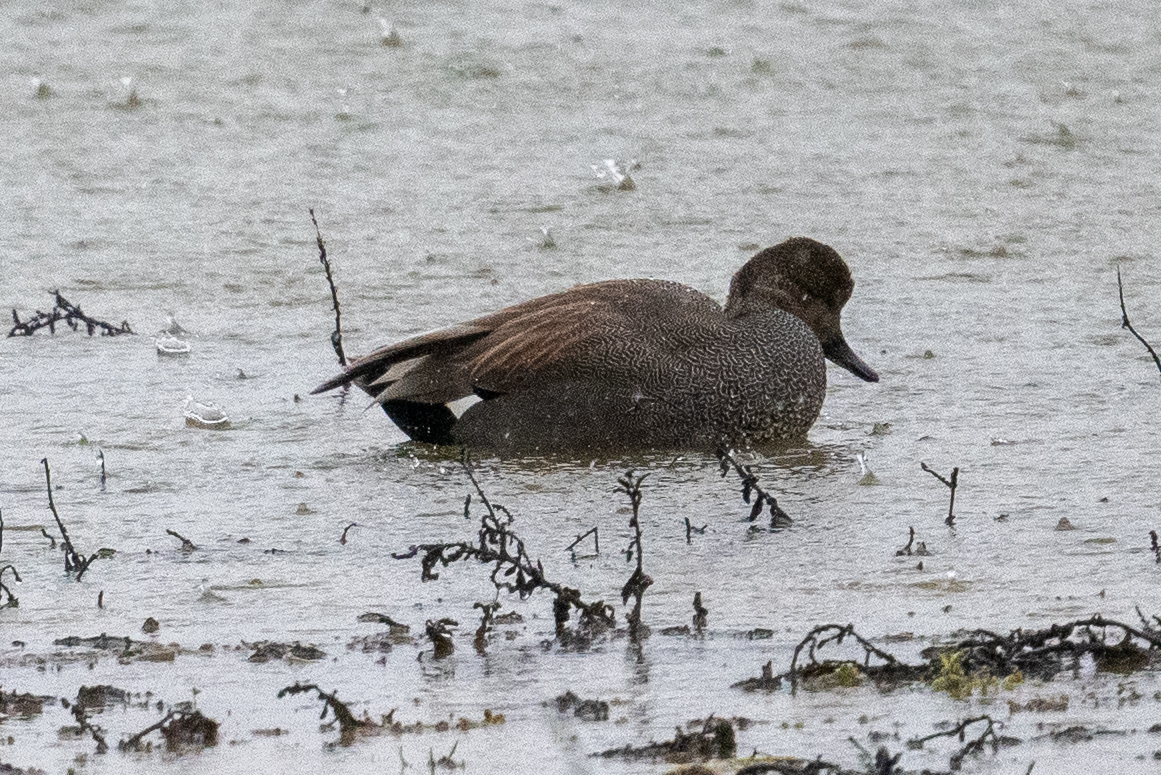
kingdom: Animalia
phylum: Chordata
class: Aves
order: Anseriformes
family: Anatidae
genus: Mareca
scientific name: Mareca strepera
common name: Gadwall
